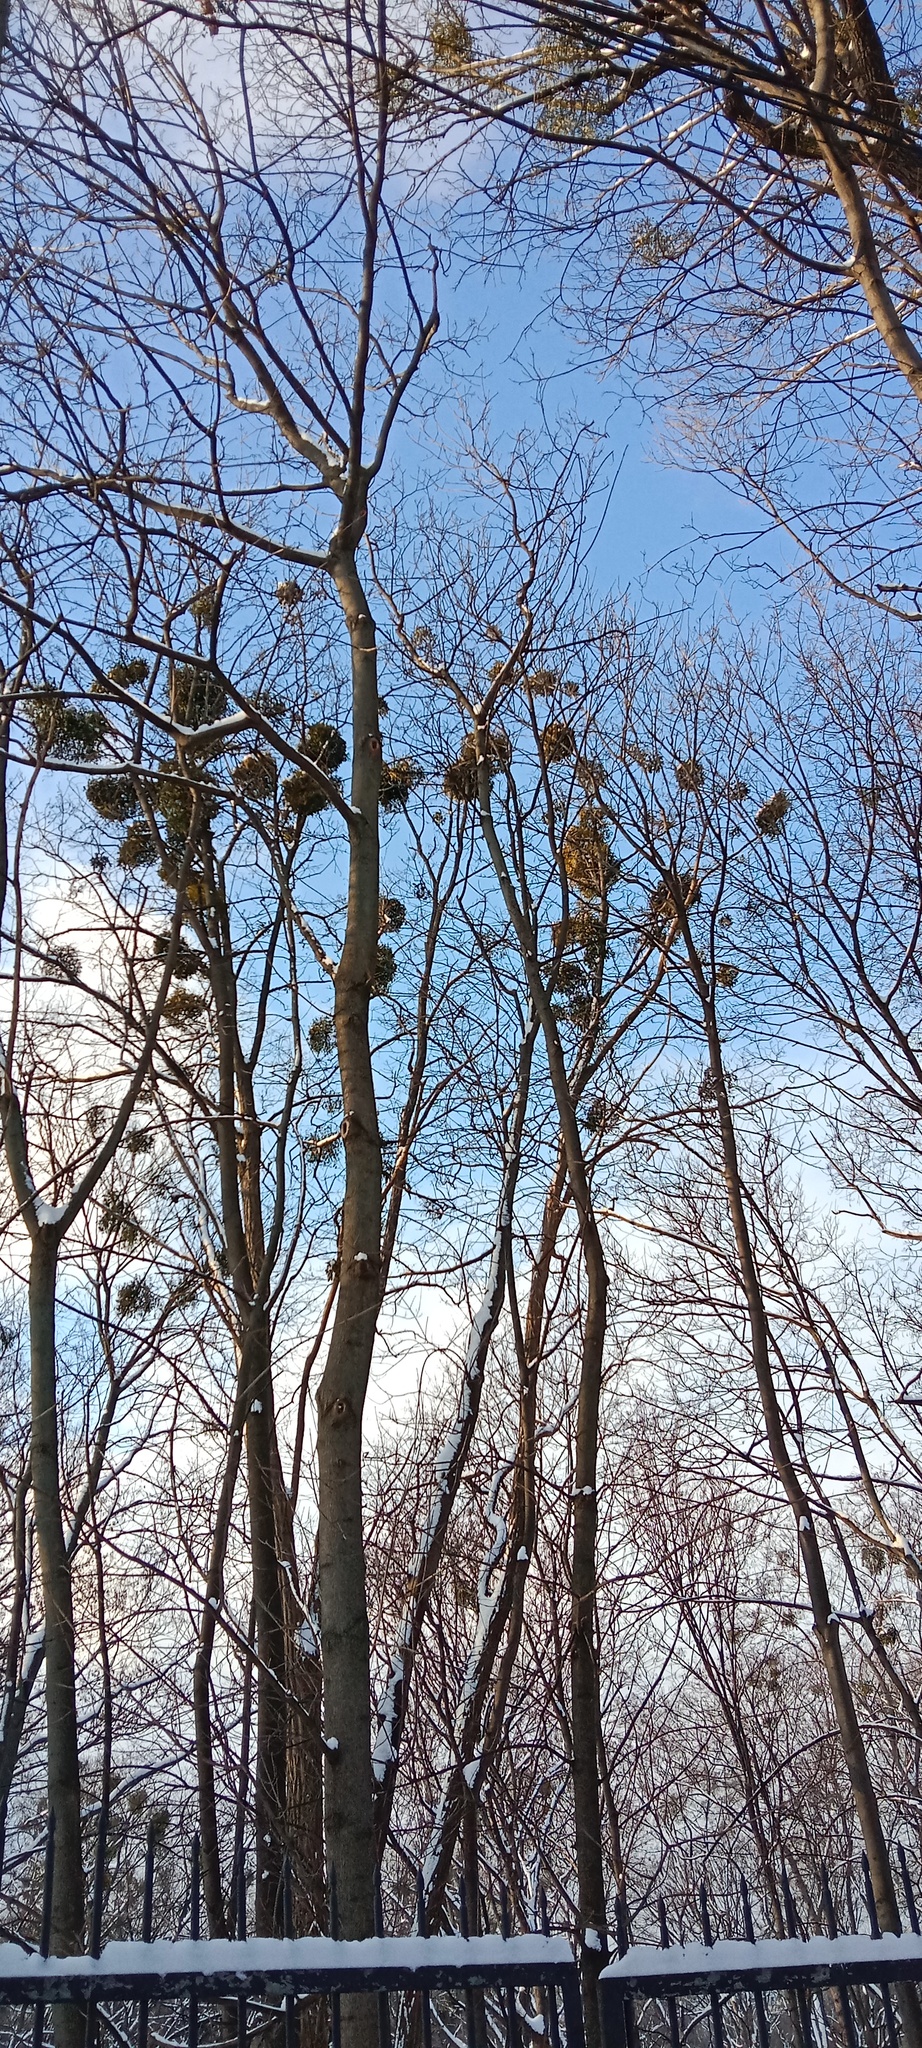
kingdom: Plantae
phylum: Tracheophyta
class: Magnoliopsida
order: Santalales
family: Viscaceae
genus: Viscum
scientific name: Viscum album
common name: Mistletoe
